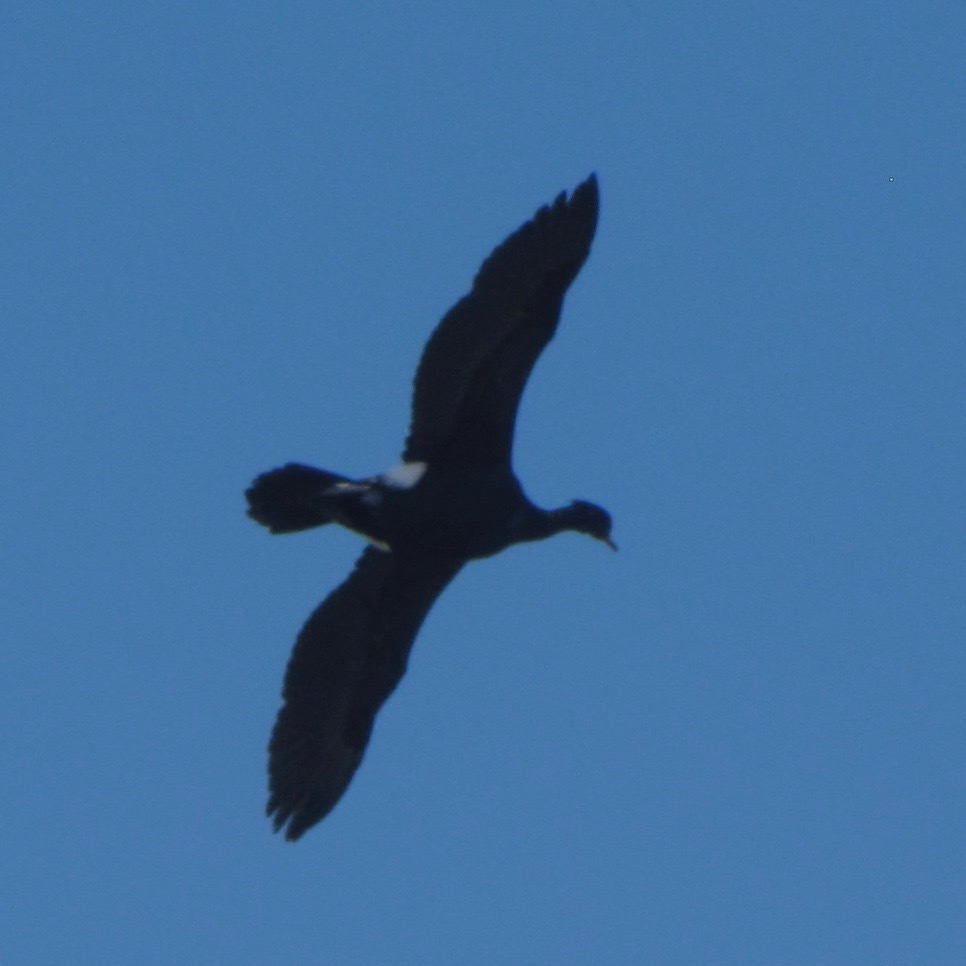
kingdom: Animalia
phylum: Chordata
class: Aves
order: Suliformes
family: Phalacrocoracidae
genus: Phalacrocorax
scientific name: Phalacrocorax pelagicus
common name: Pelagic cormorant
